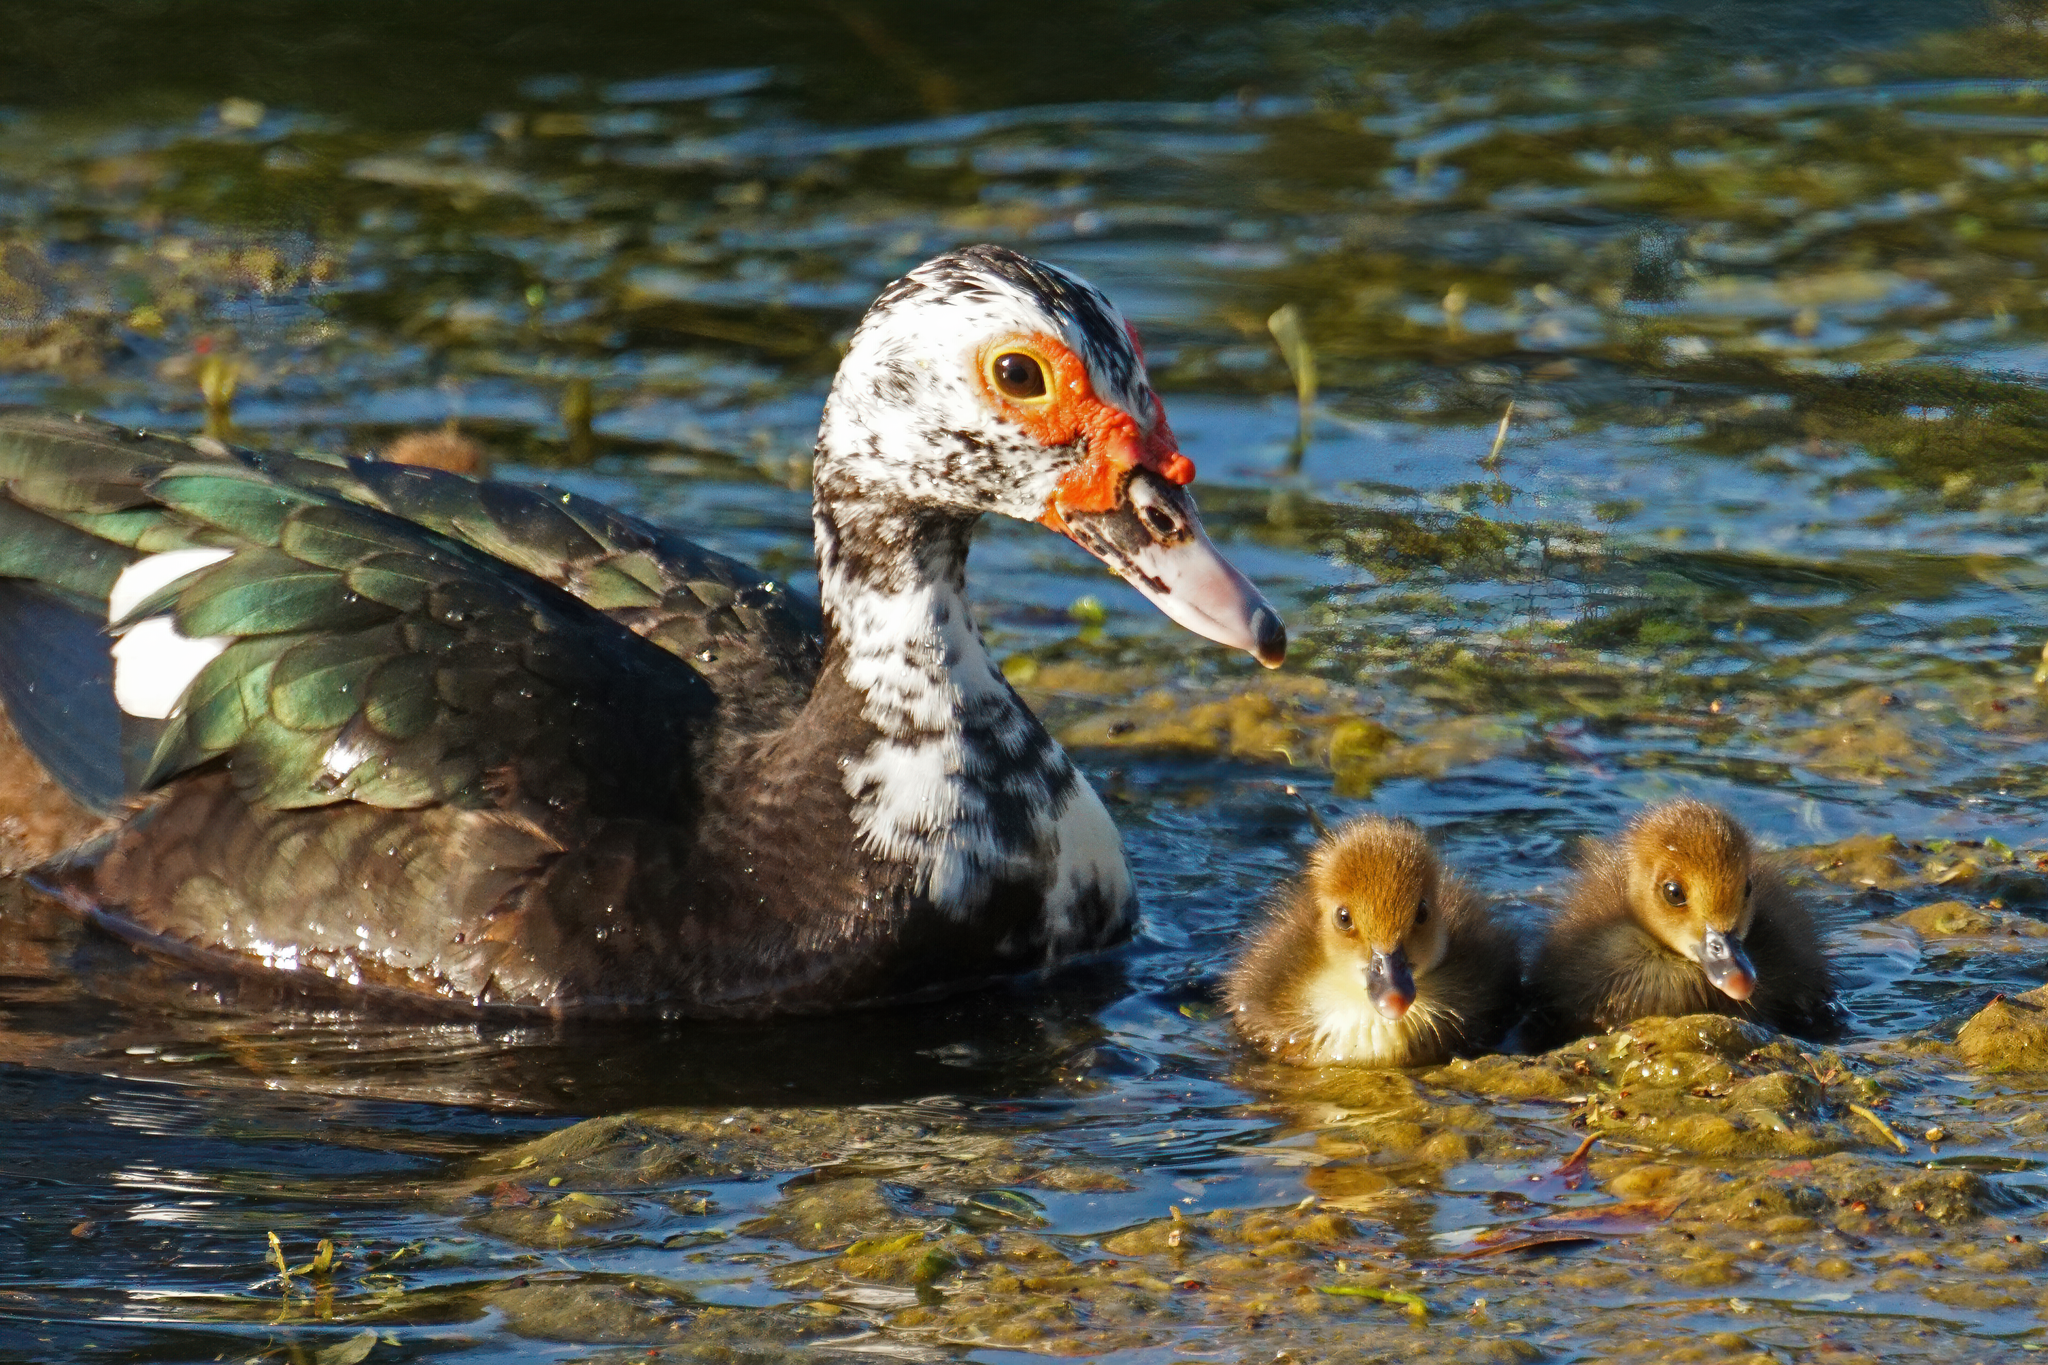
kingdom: Animalia
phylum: Chordata
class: Aves
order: Anseriformes
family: Anatidae
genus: Cairina
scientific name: Cairina moschata
